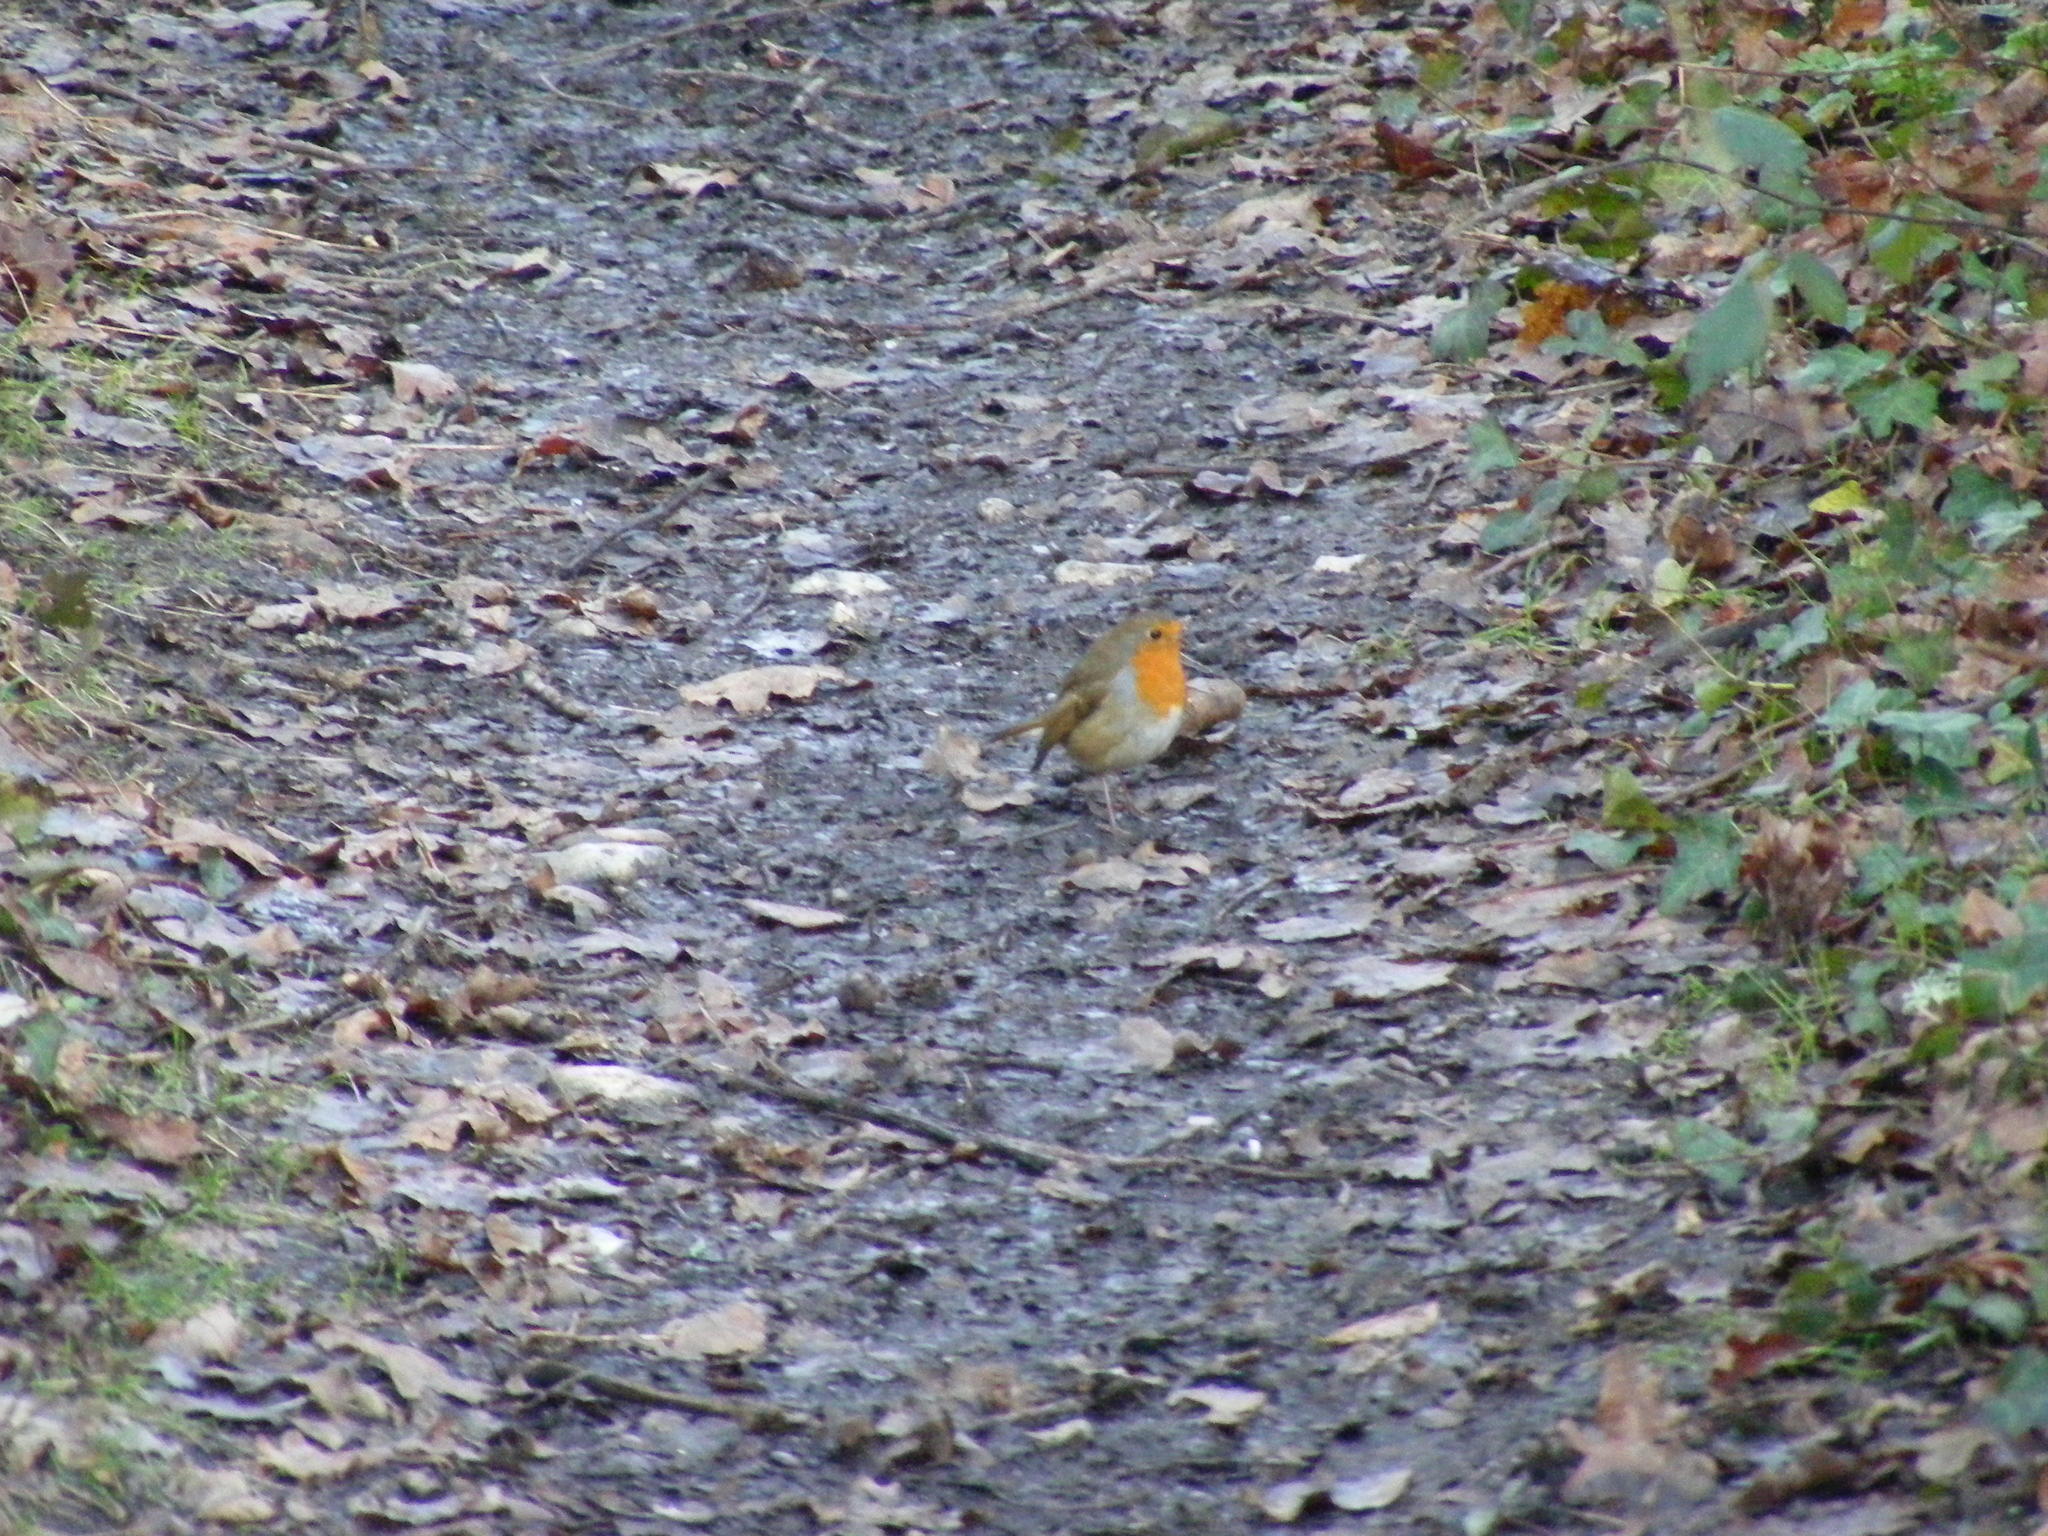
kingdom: Animalia
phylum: Chordata
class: Aves
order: Passeriformes
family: Muscicapidae
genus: Erithacus
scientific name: Erithacus rubecula
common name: European robin
